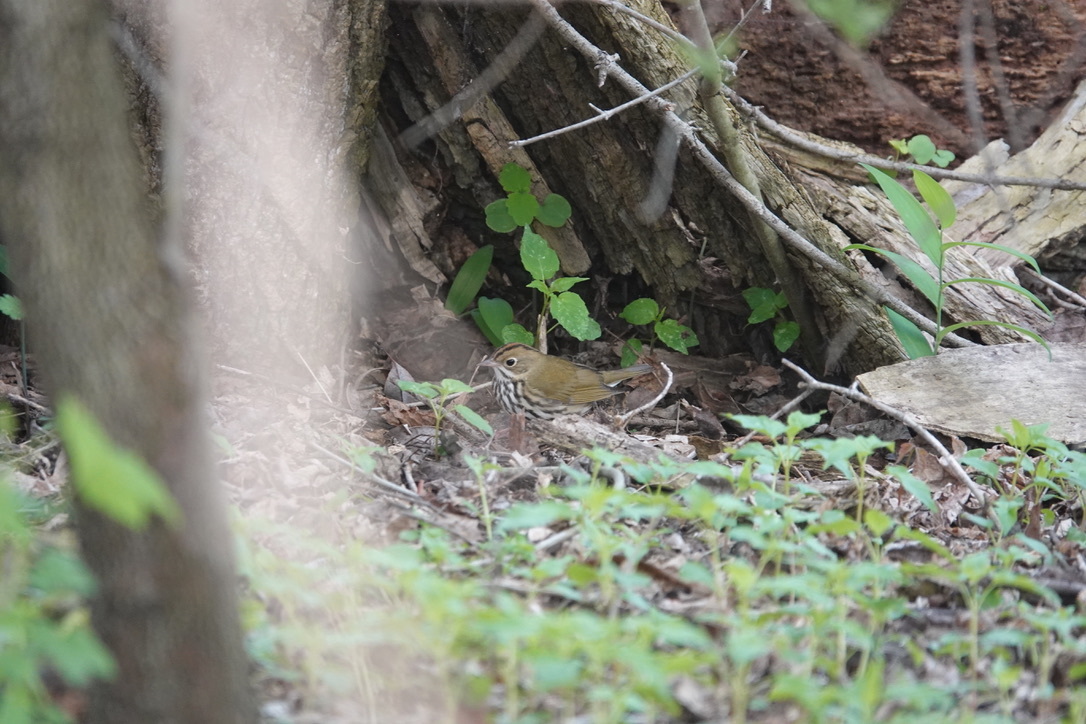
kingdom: Animalia
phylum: Chordata
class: Aves
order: Passeriformes
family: Parulidae
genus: Seiurus
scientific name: Seiurus aurocapilla
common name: Ovenbird
